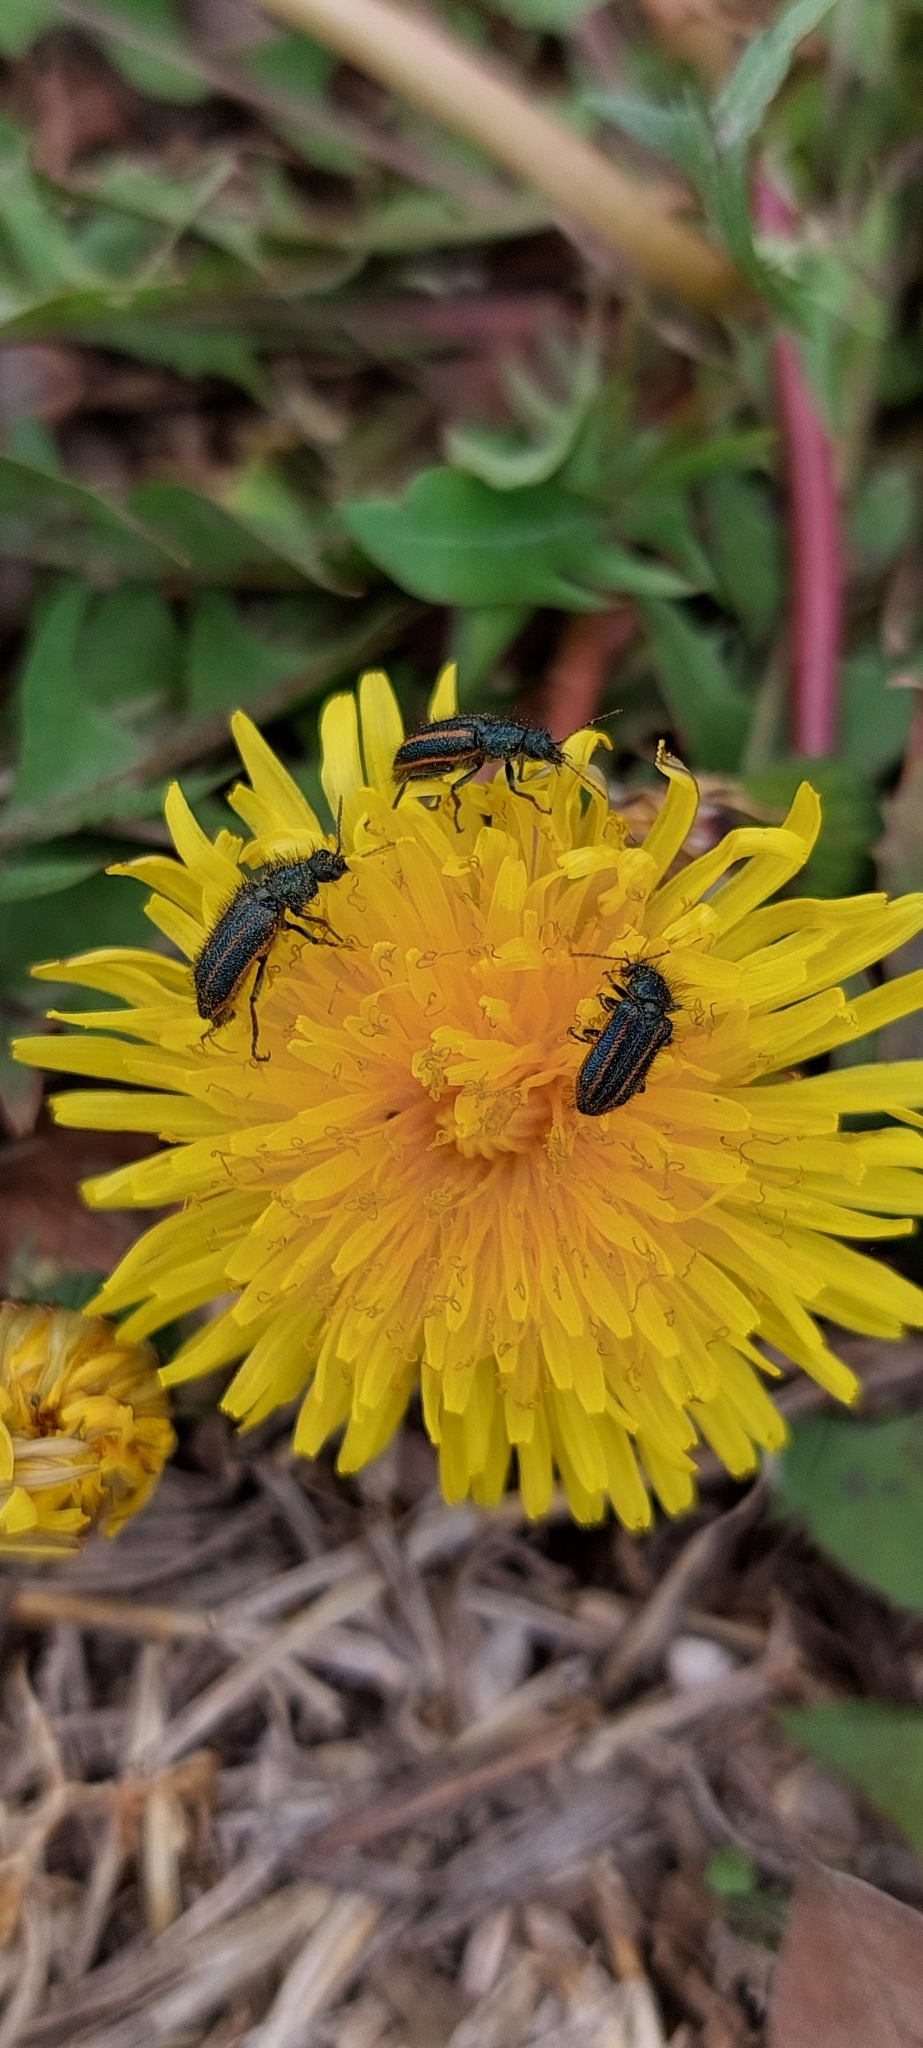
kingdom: Animalia
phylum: Arthropoda
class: Insecta
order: Coleoptera
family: Melyridae
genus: Astylus
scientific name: Astylus
